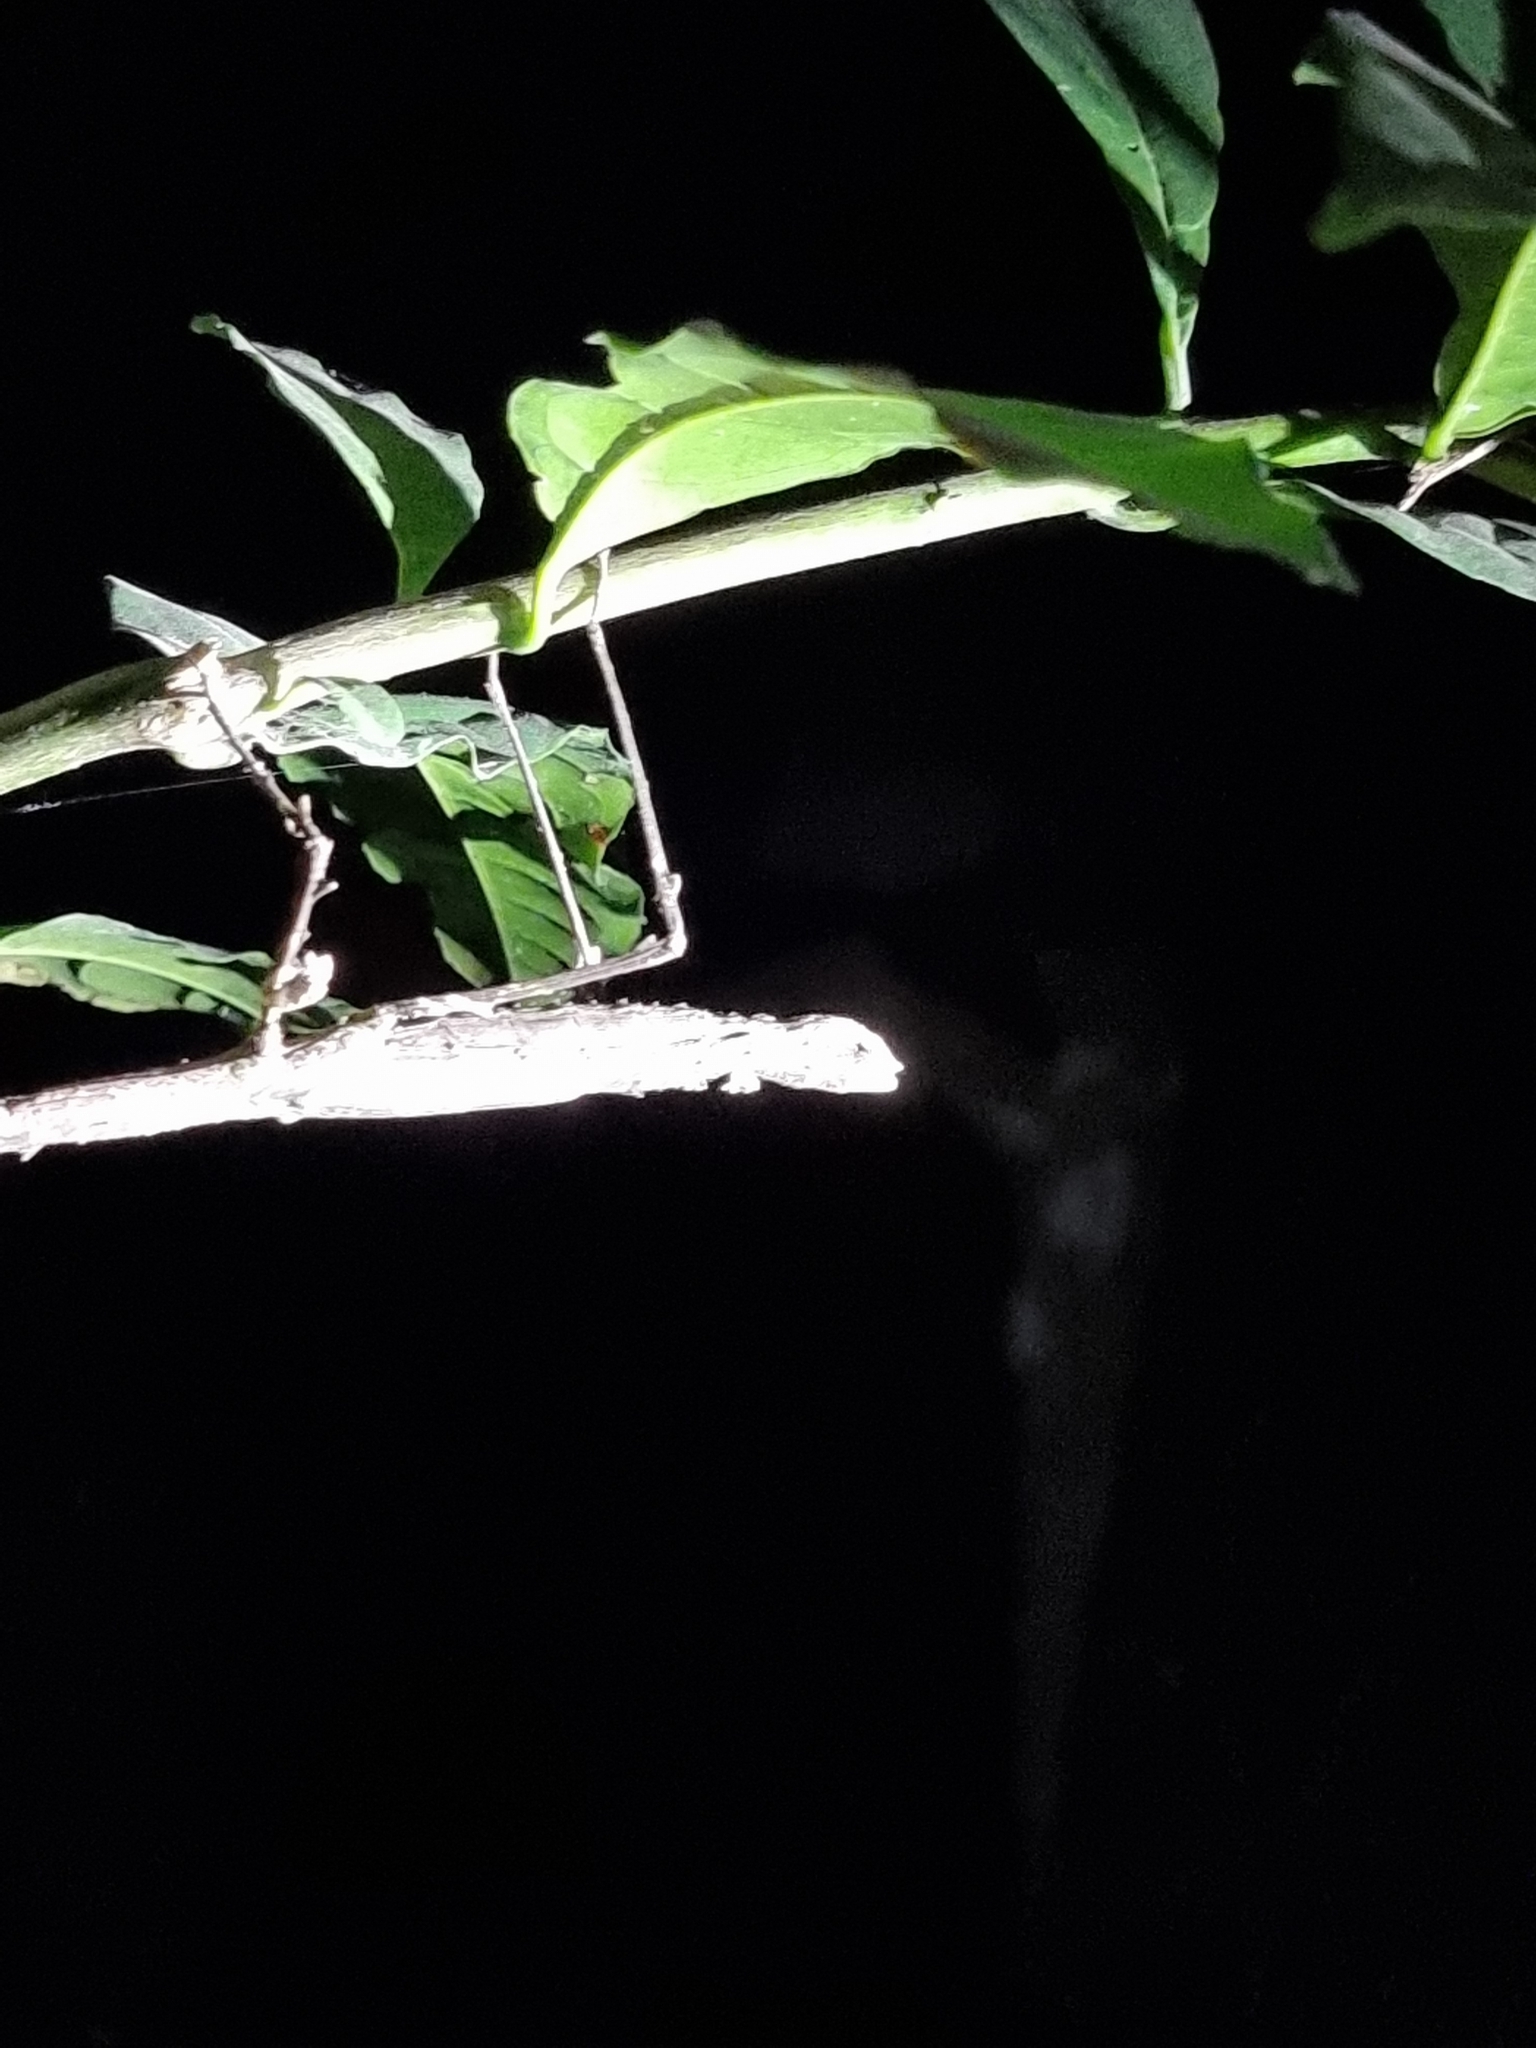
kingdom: Animalia
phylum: Arthropoda
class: Insecta
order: Phasmida
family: Phasmatidae
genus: Onchestus
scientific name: Onchestus gorgus
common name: Gorgon stick-insect
